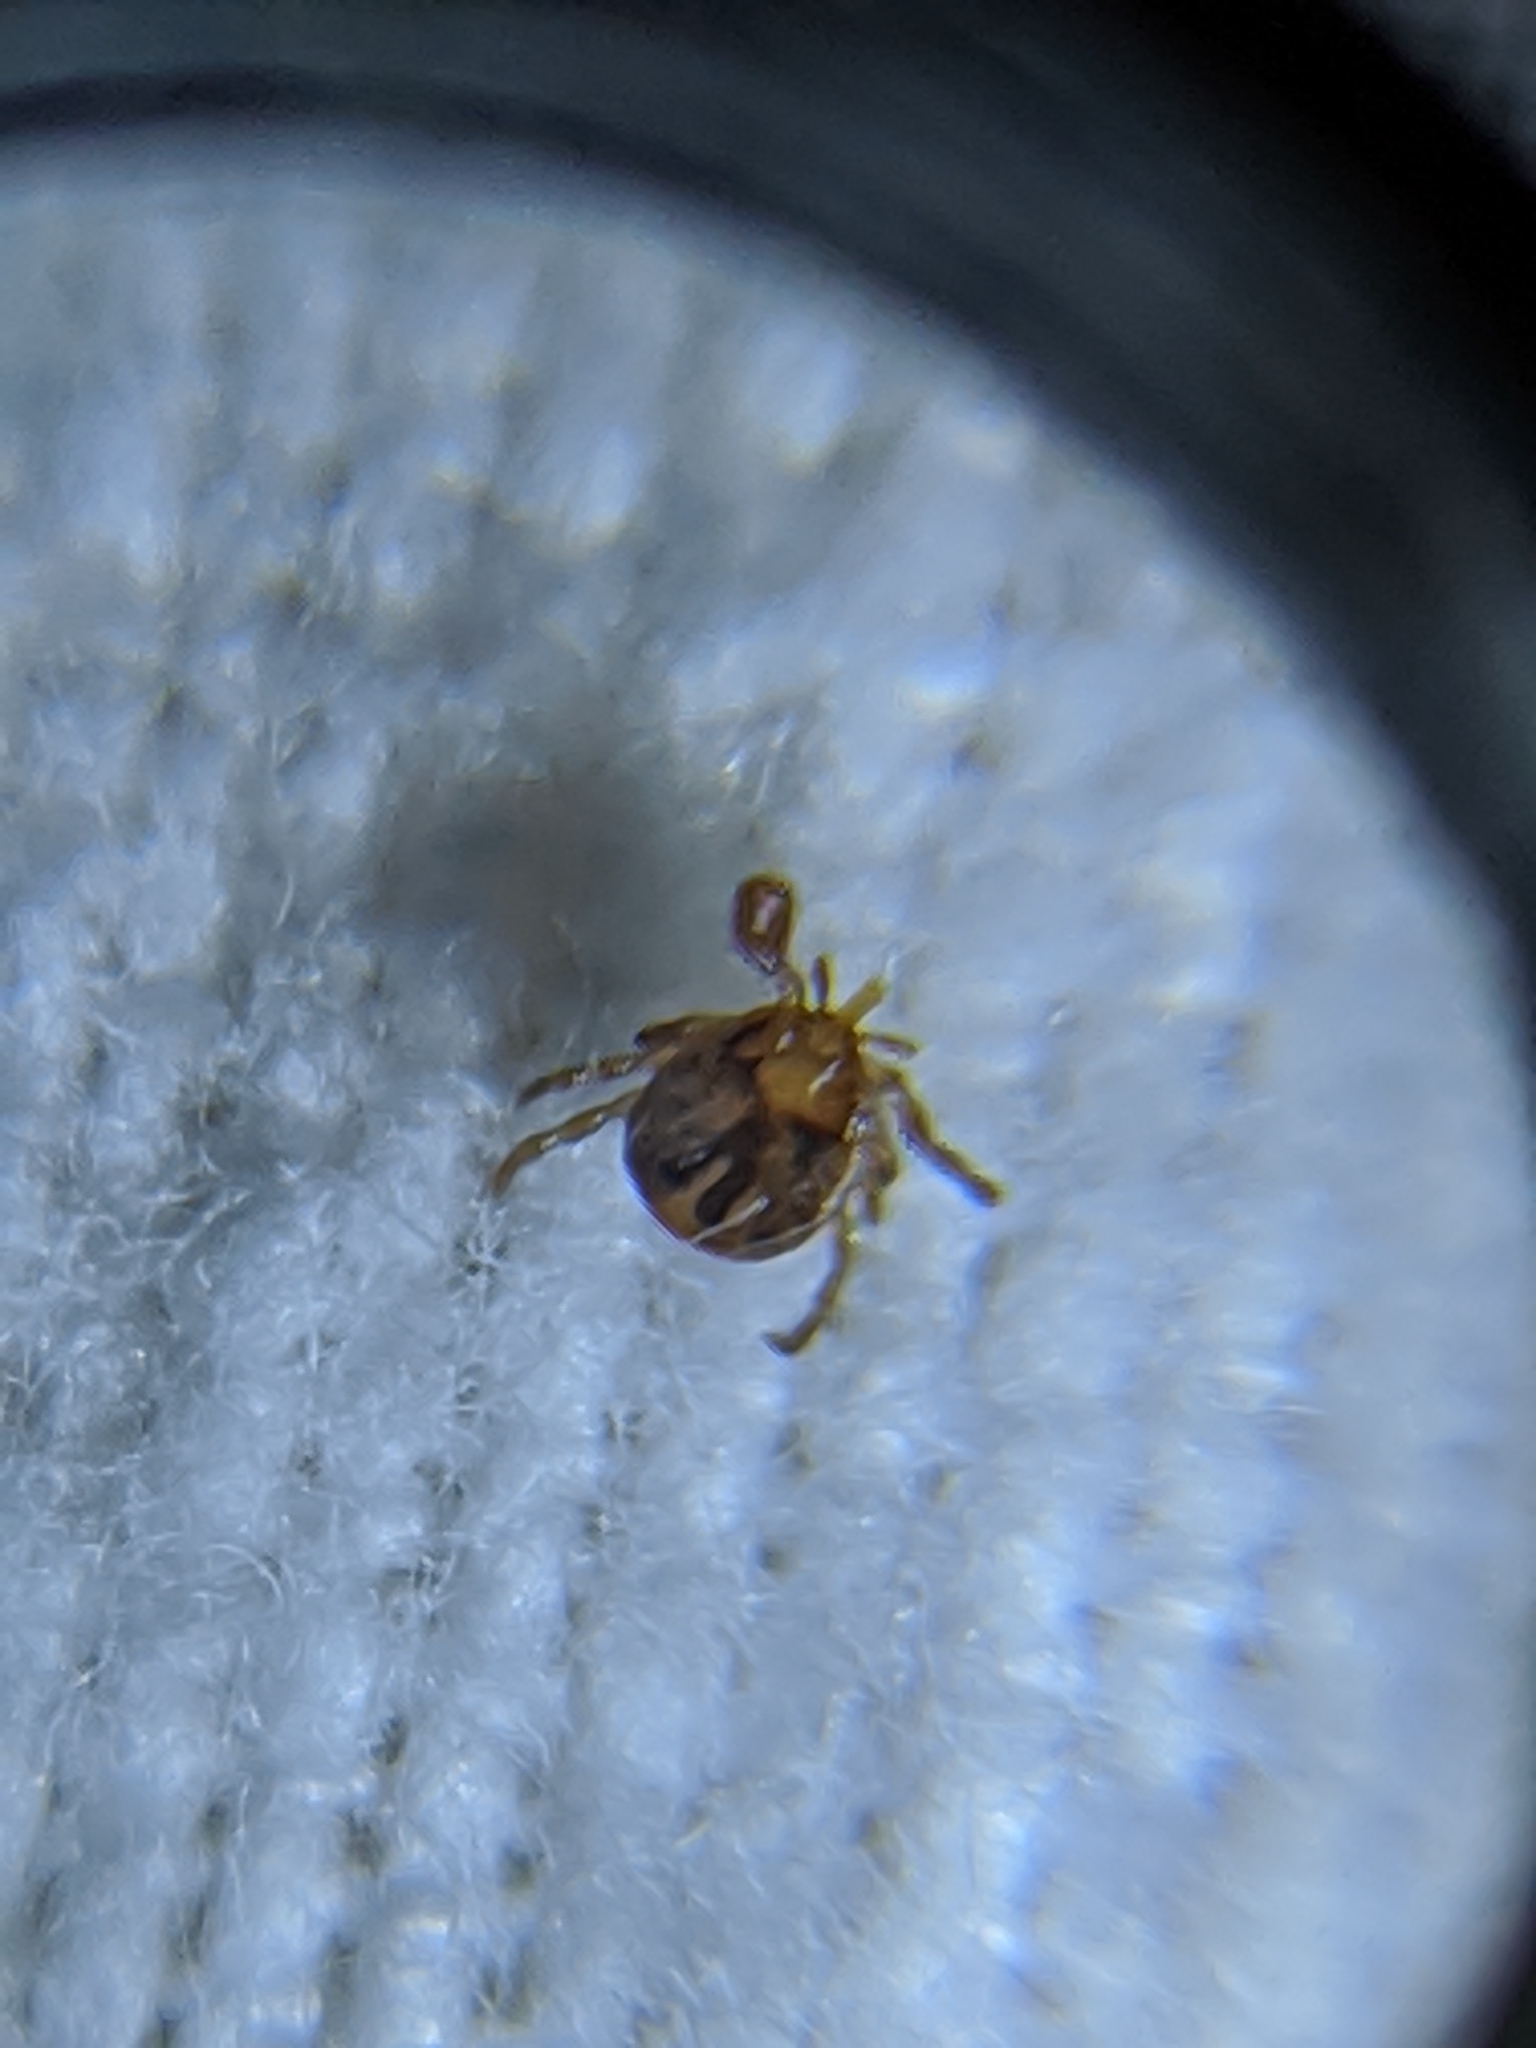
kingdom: Animalia
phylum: Arthropoda
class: Arachnida
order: Ixodida
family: Ixodidae
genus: Amblyomma
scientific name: Amblyomma americanum
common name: Lone star tick
